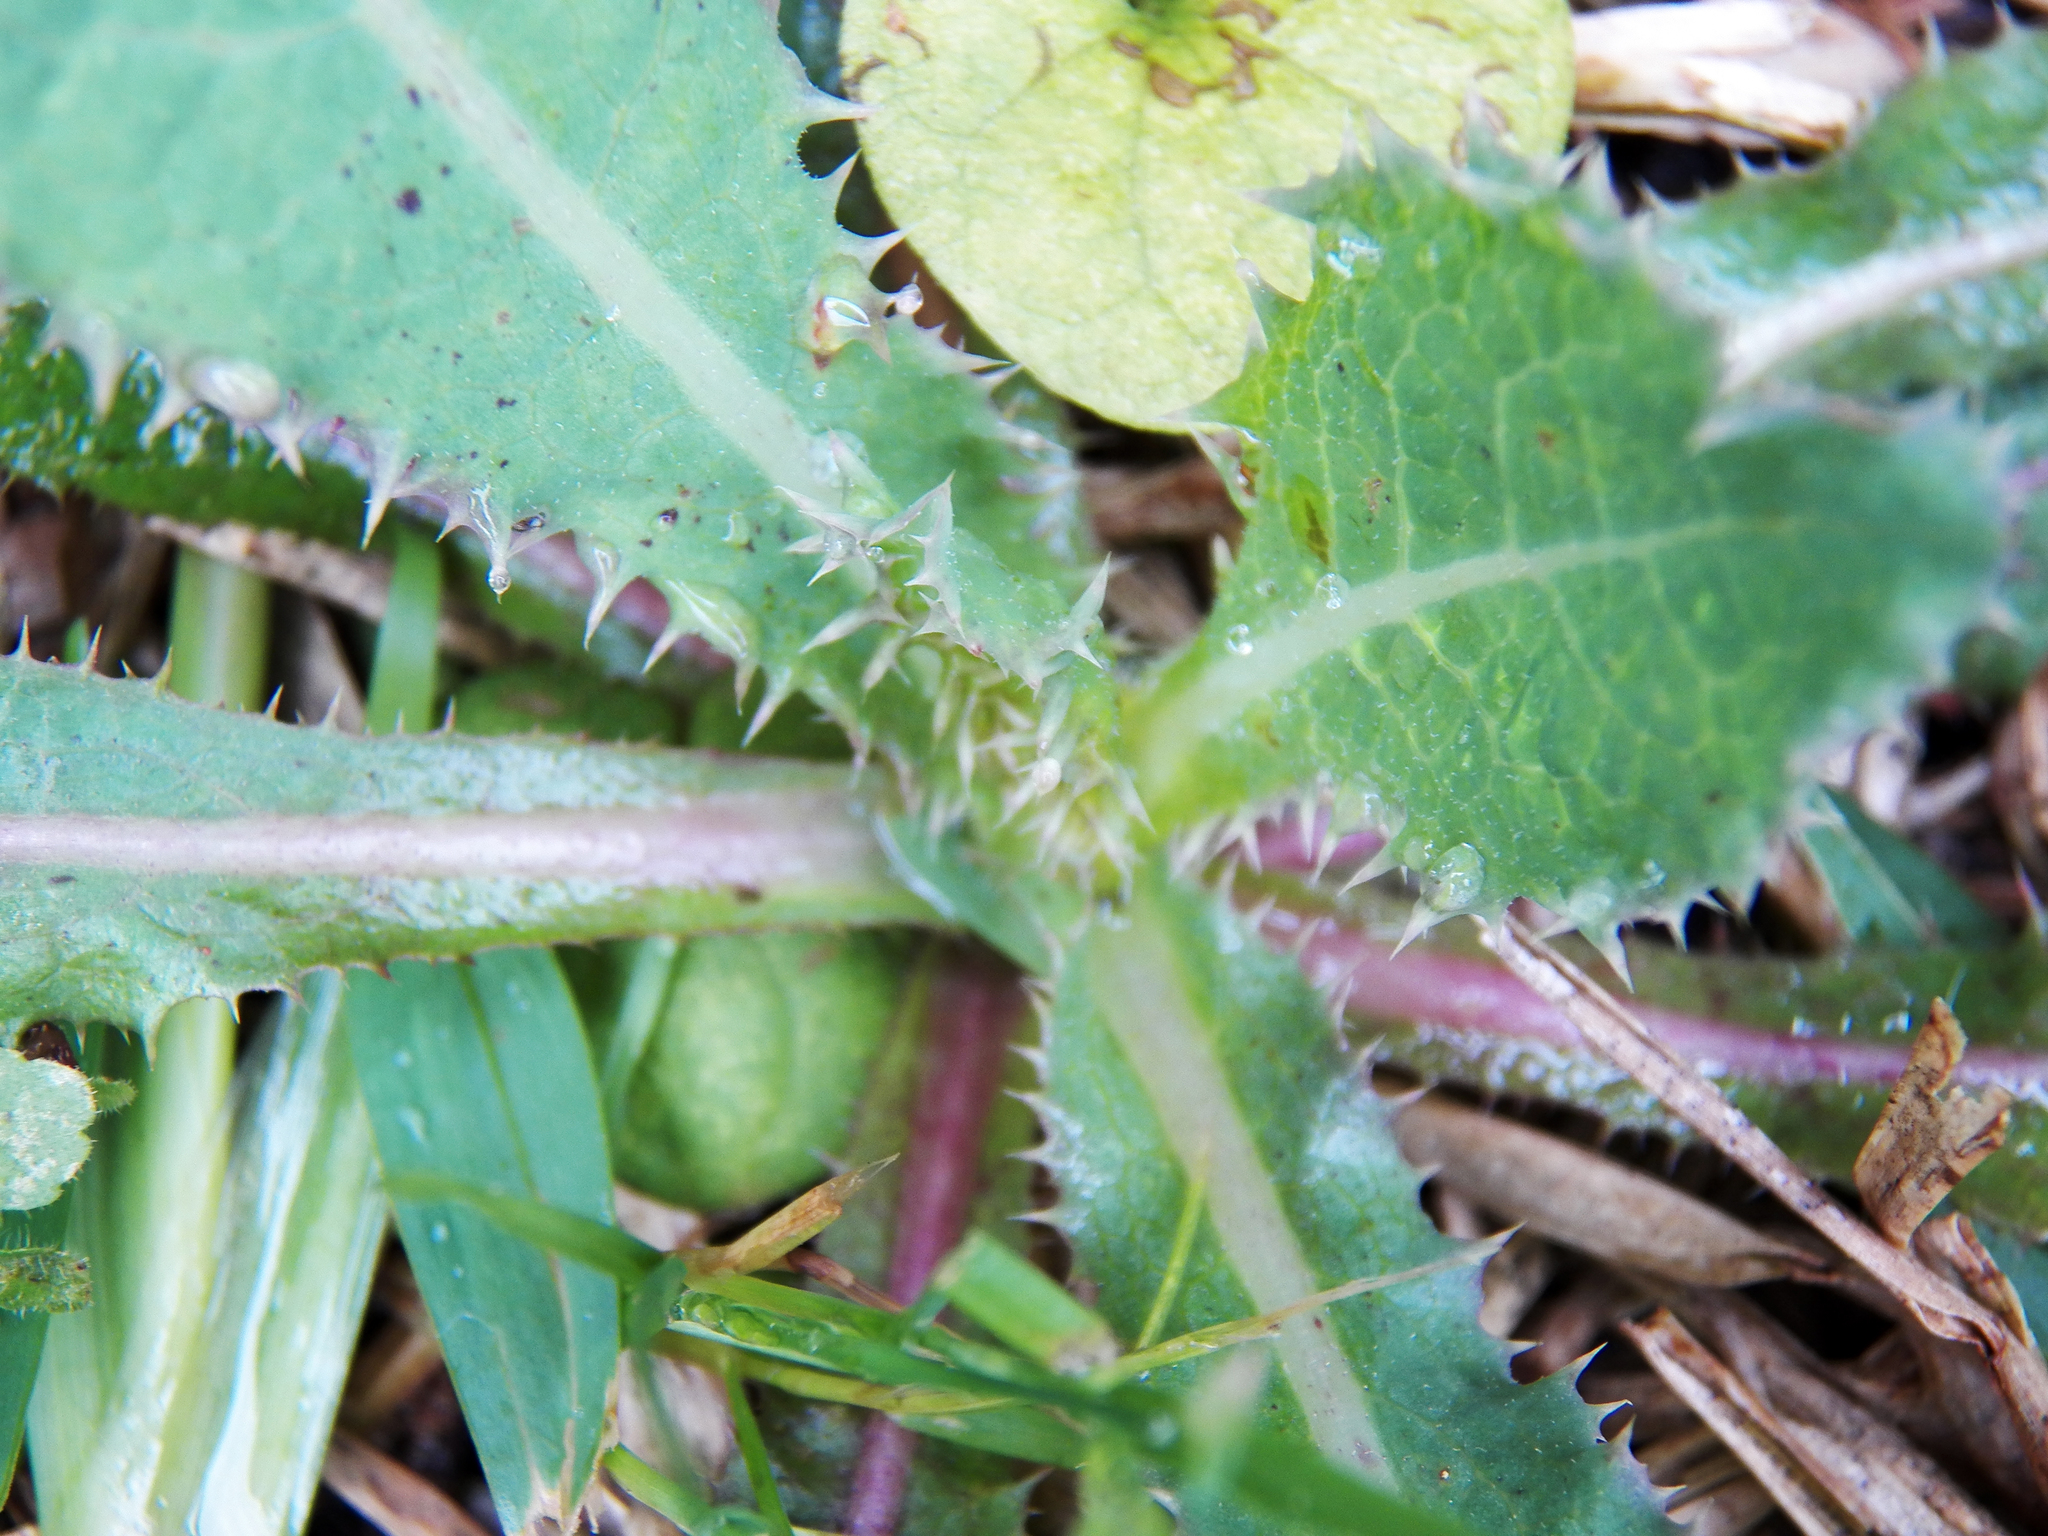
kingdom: Plantae
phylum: Tracheophyta
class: Magnoliopsida
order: Asterales
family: Asteraceae
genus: Sonchus
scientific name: Sonchus asper
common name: Prickly sow-thistle
